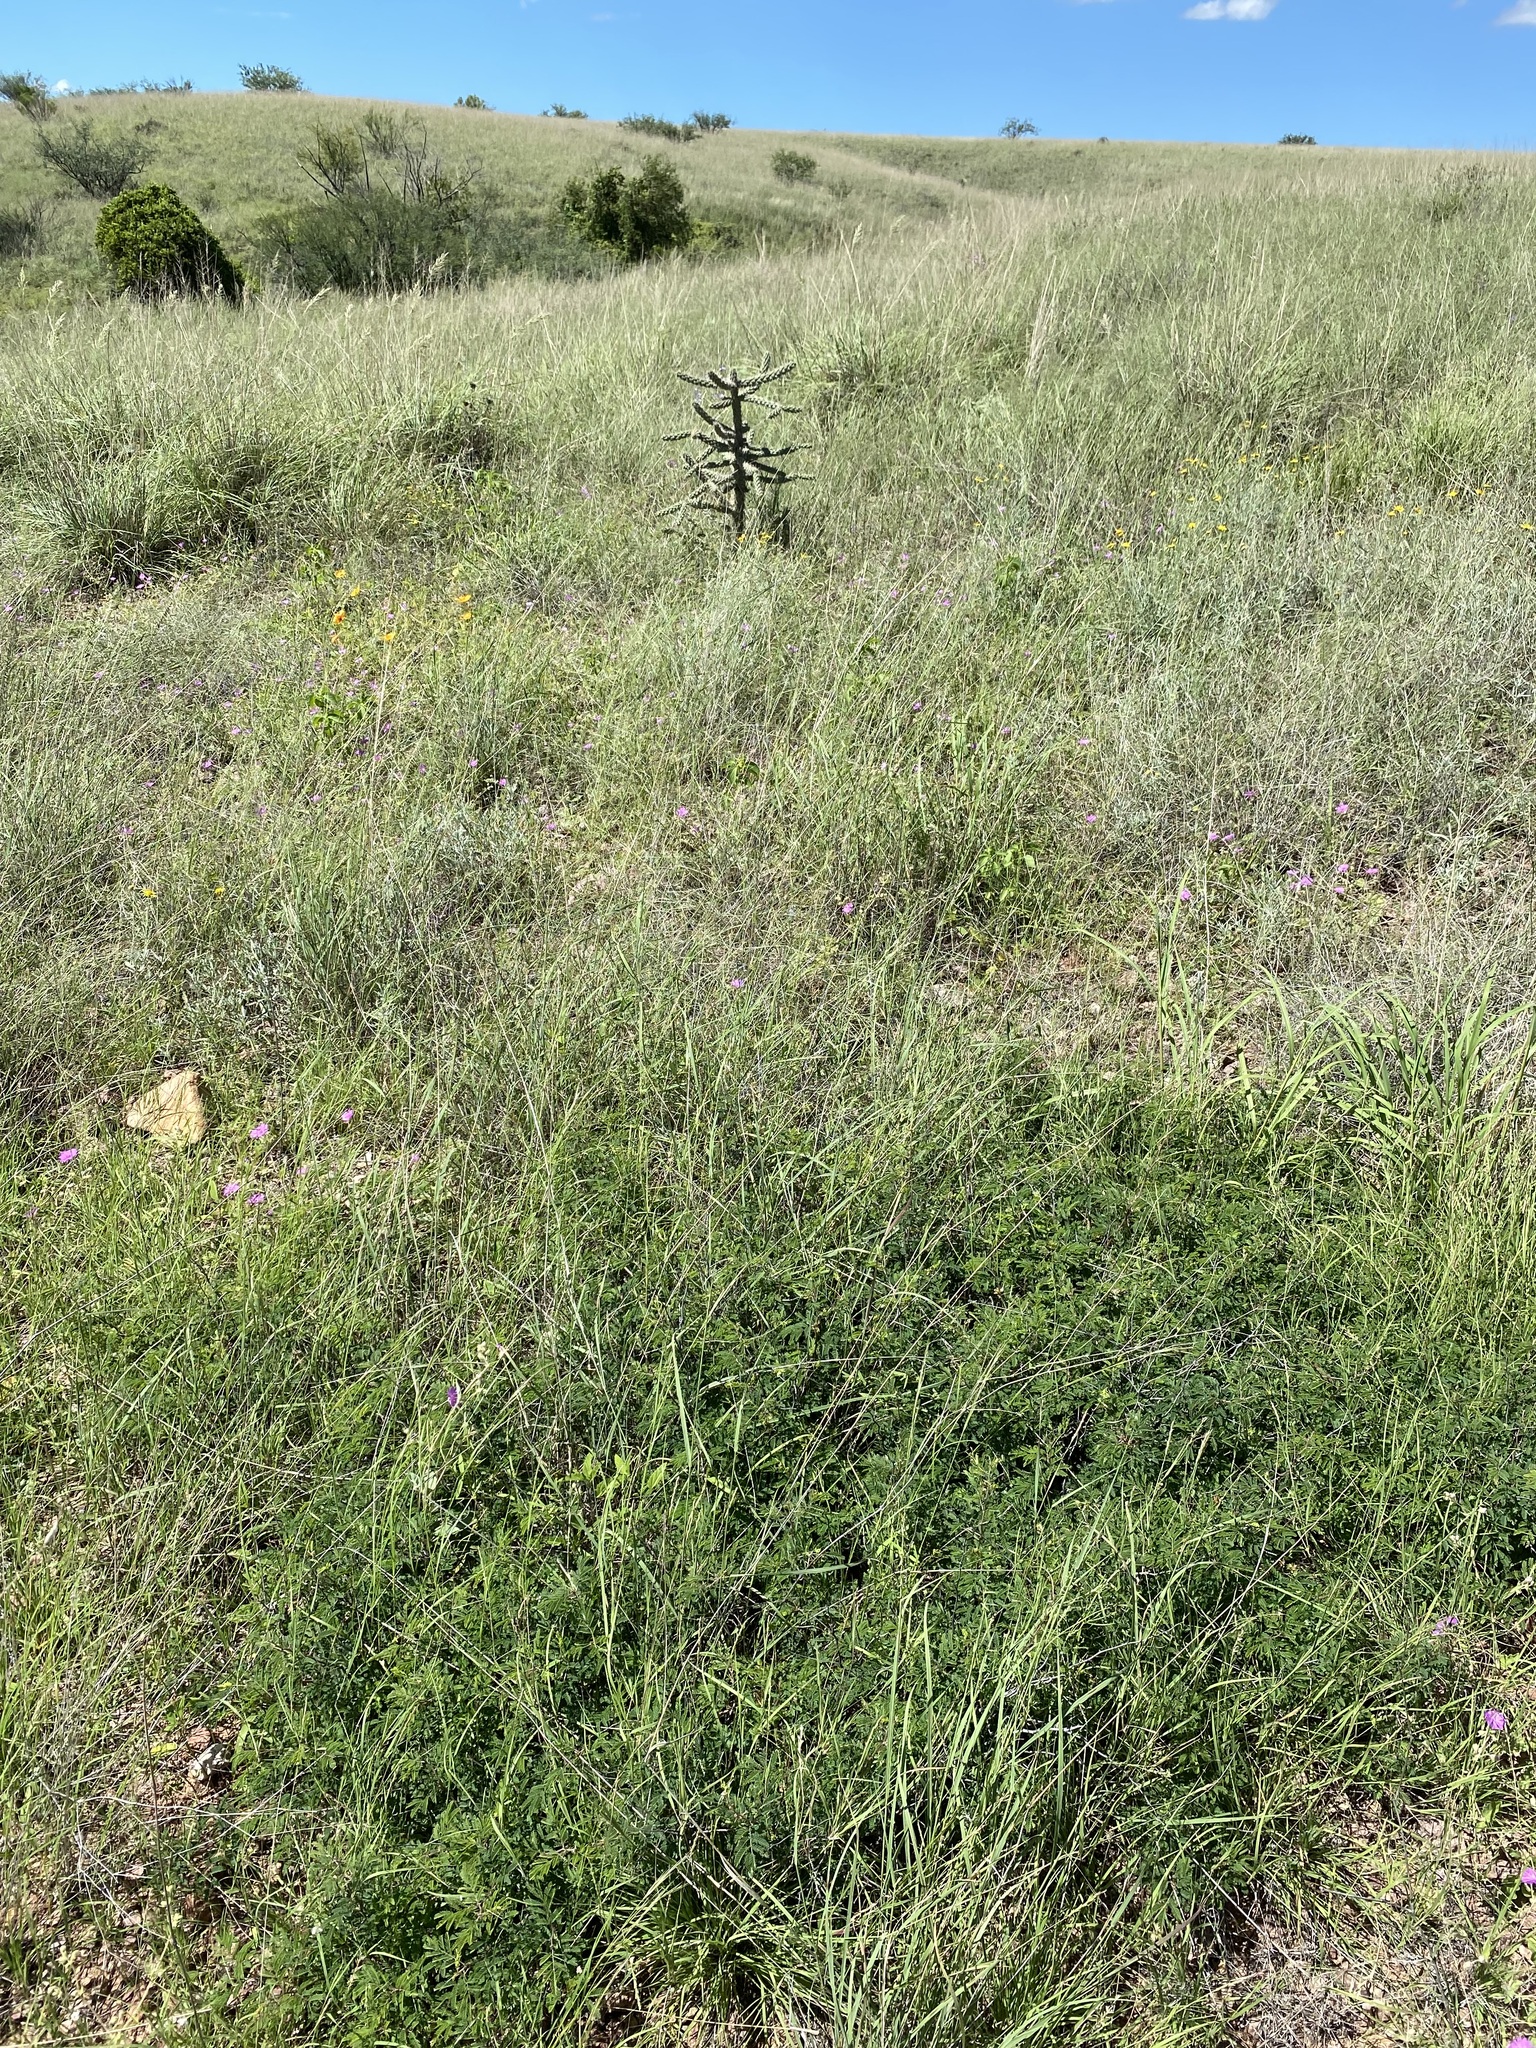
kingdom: Plantae
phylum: Tracheophyta
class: Magnoliopsida
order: Fabales
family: Fabaceae
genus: Calliandra
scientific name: Calliandra eriophylla
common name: Fairy-duster
